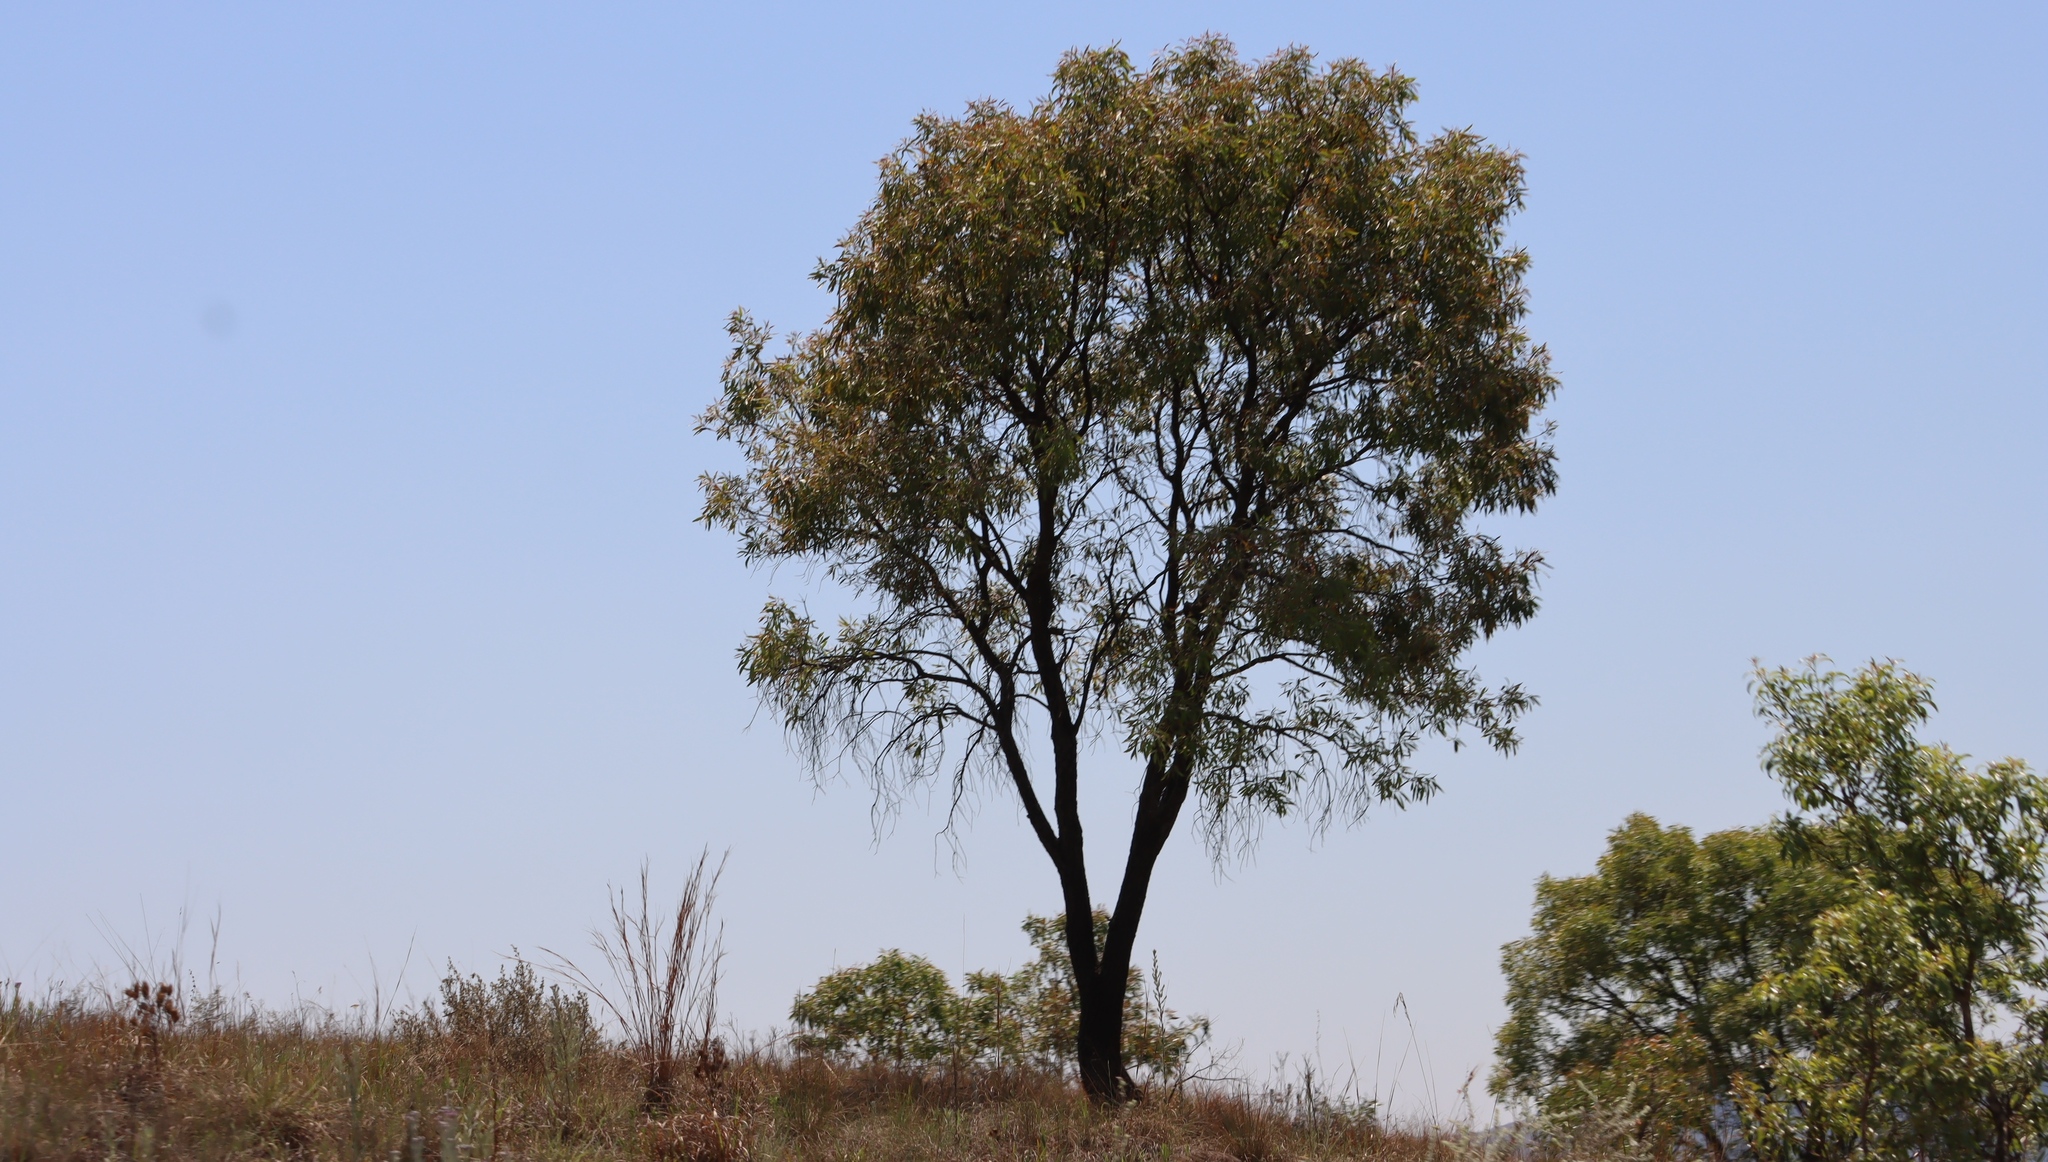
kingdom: Plantae
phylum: Tracheophyta
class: Magnoliopsida
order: Proteales
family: Proteaceae
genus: Faurea
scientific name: Faurea saligna
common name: African bean
